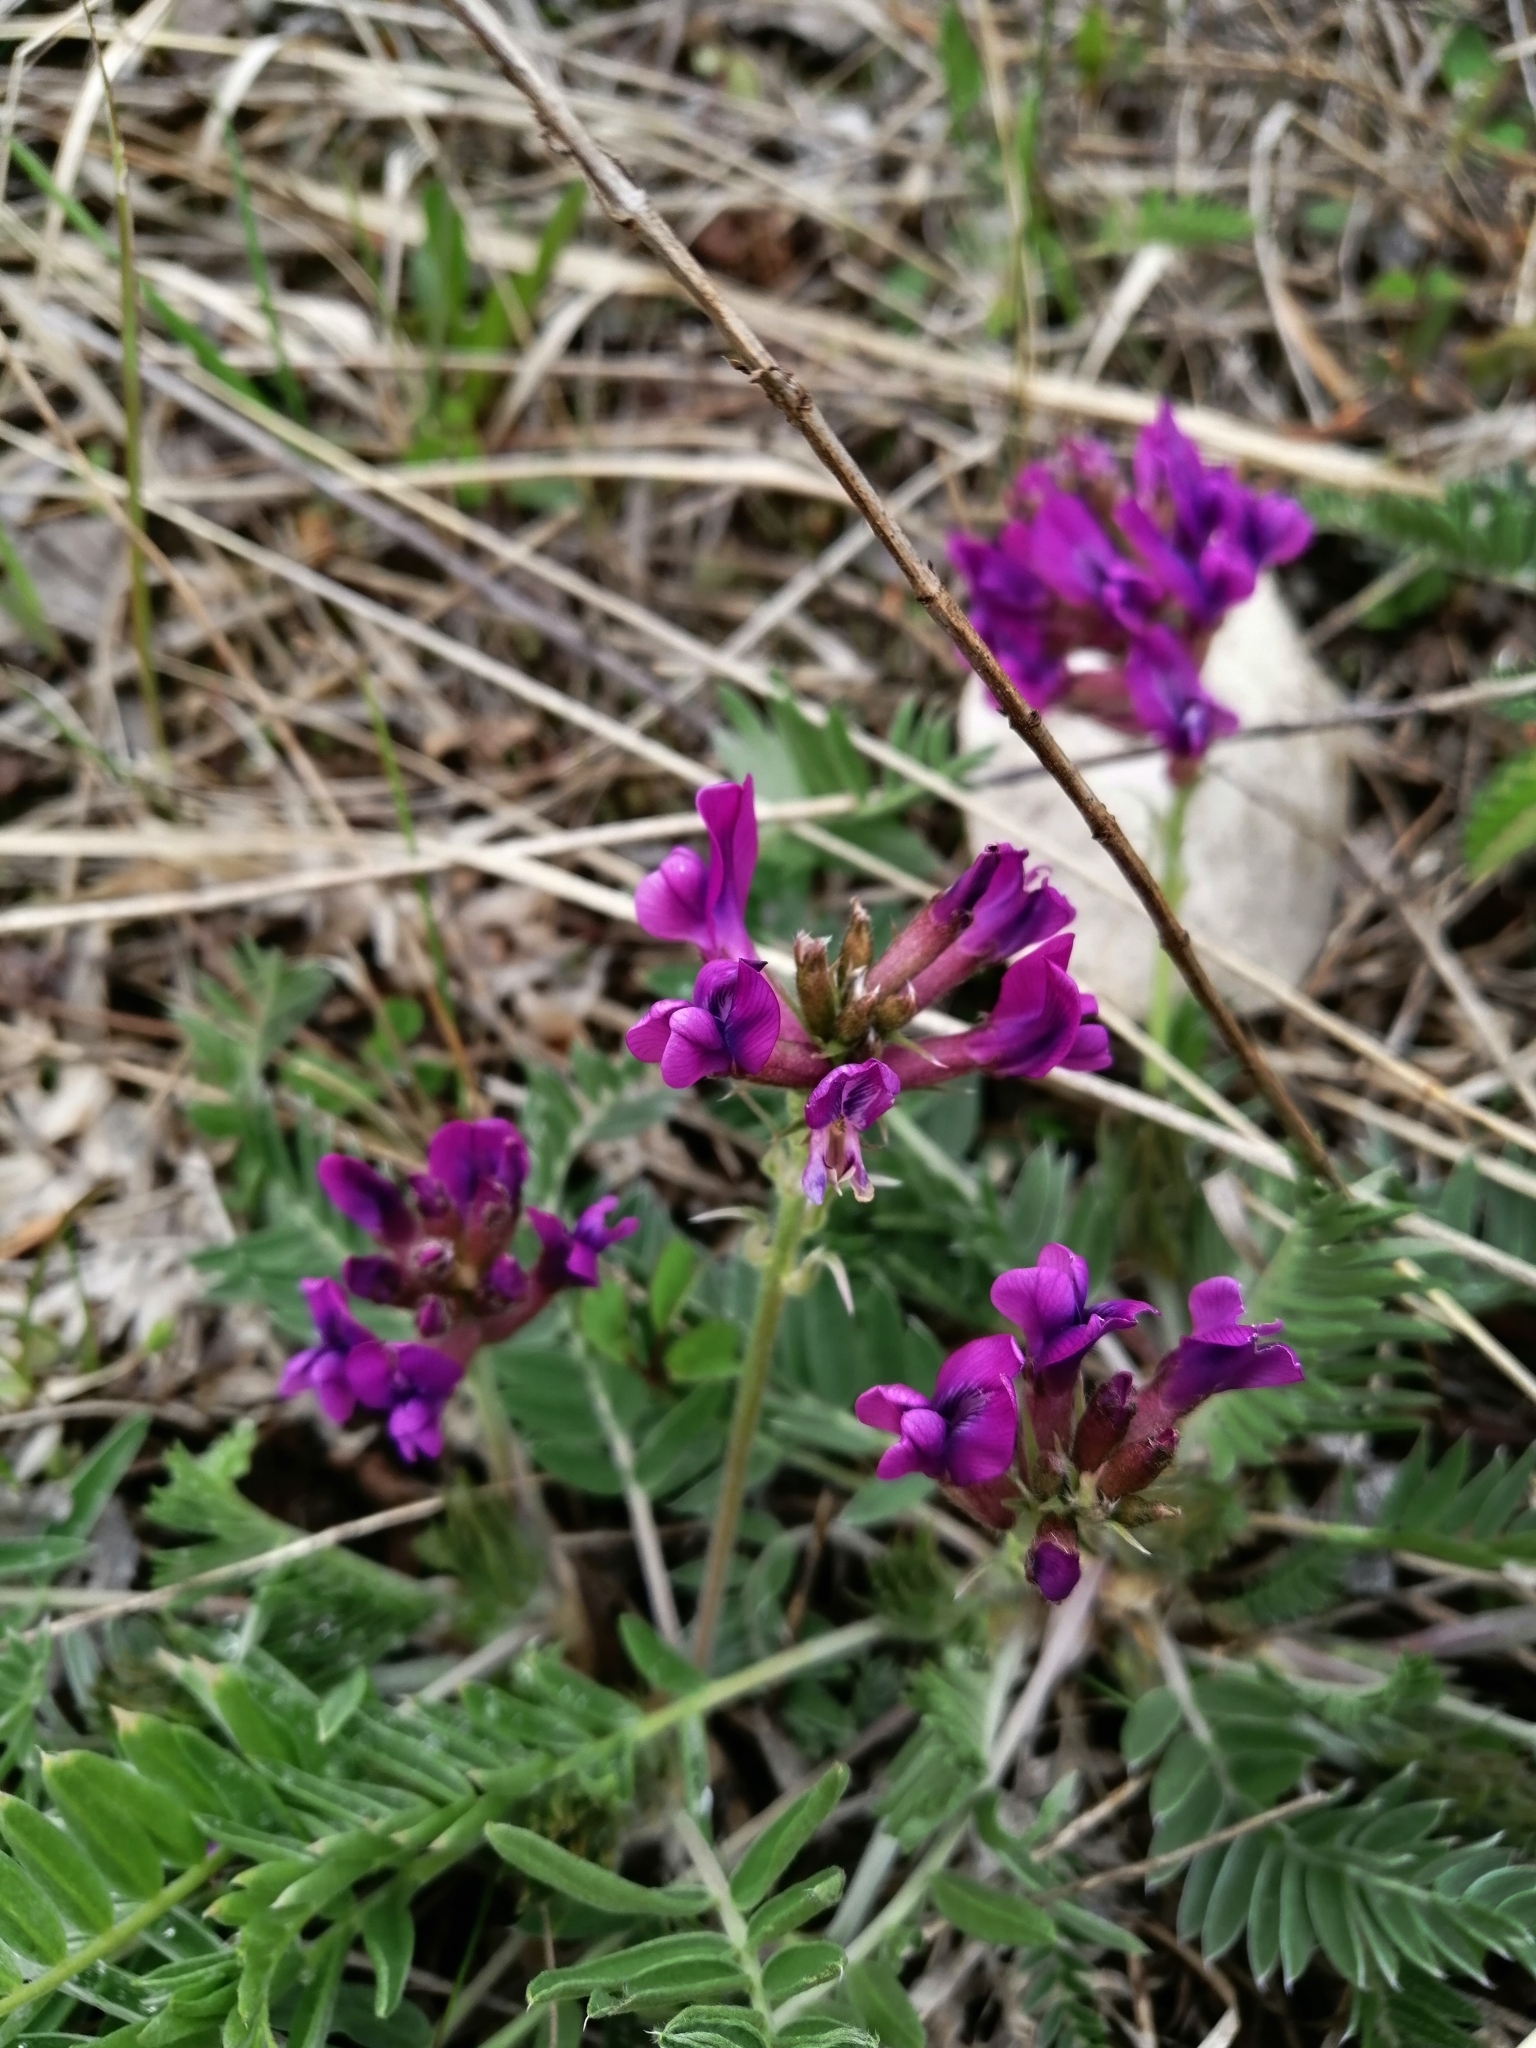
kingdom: Plantae
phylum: Tracheophyta
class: Magnoliopsida
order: Fabales
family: Fabaceae
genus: Oxytropis
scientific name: Oxytropis strobilacea
